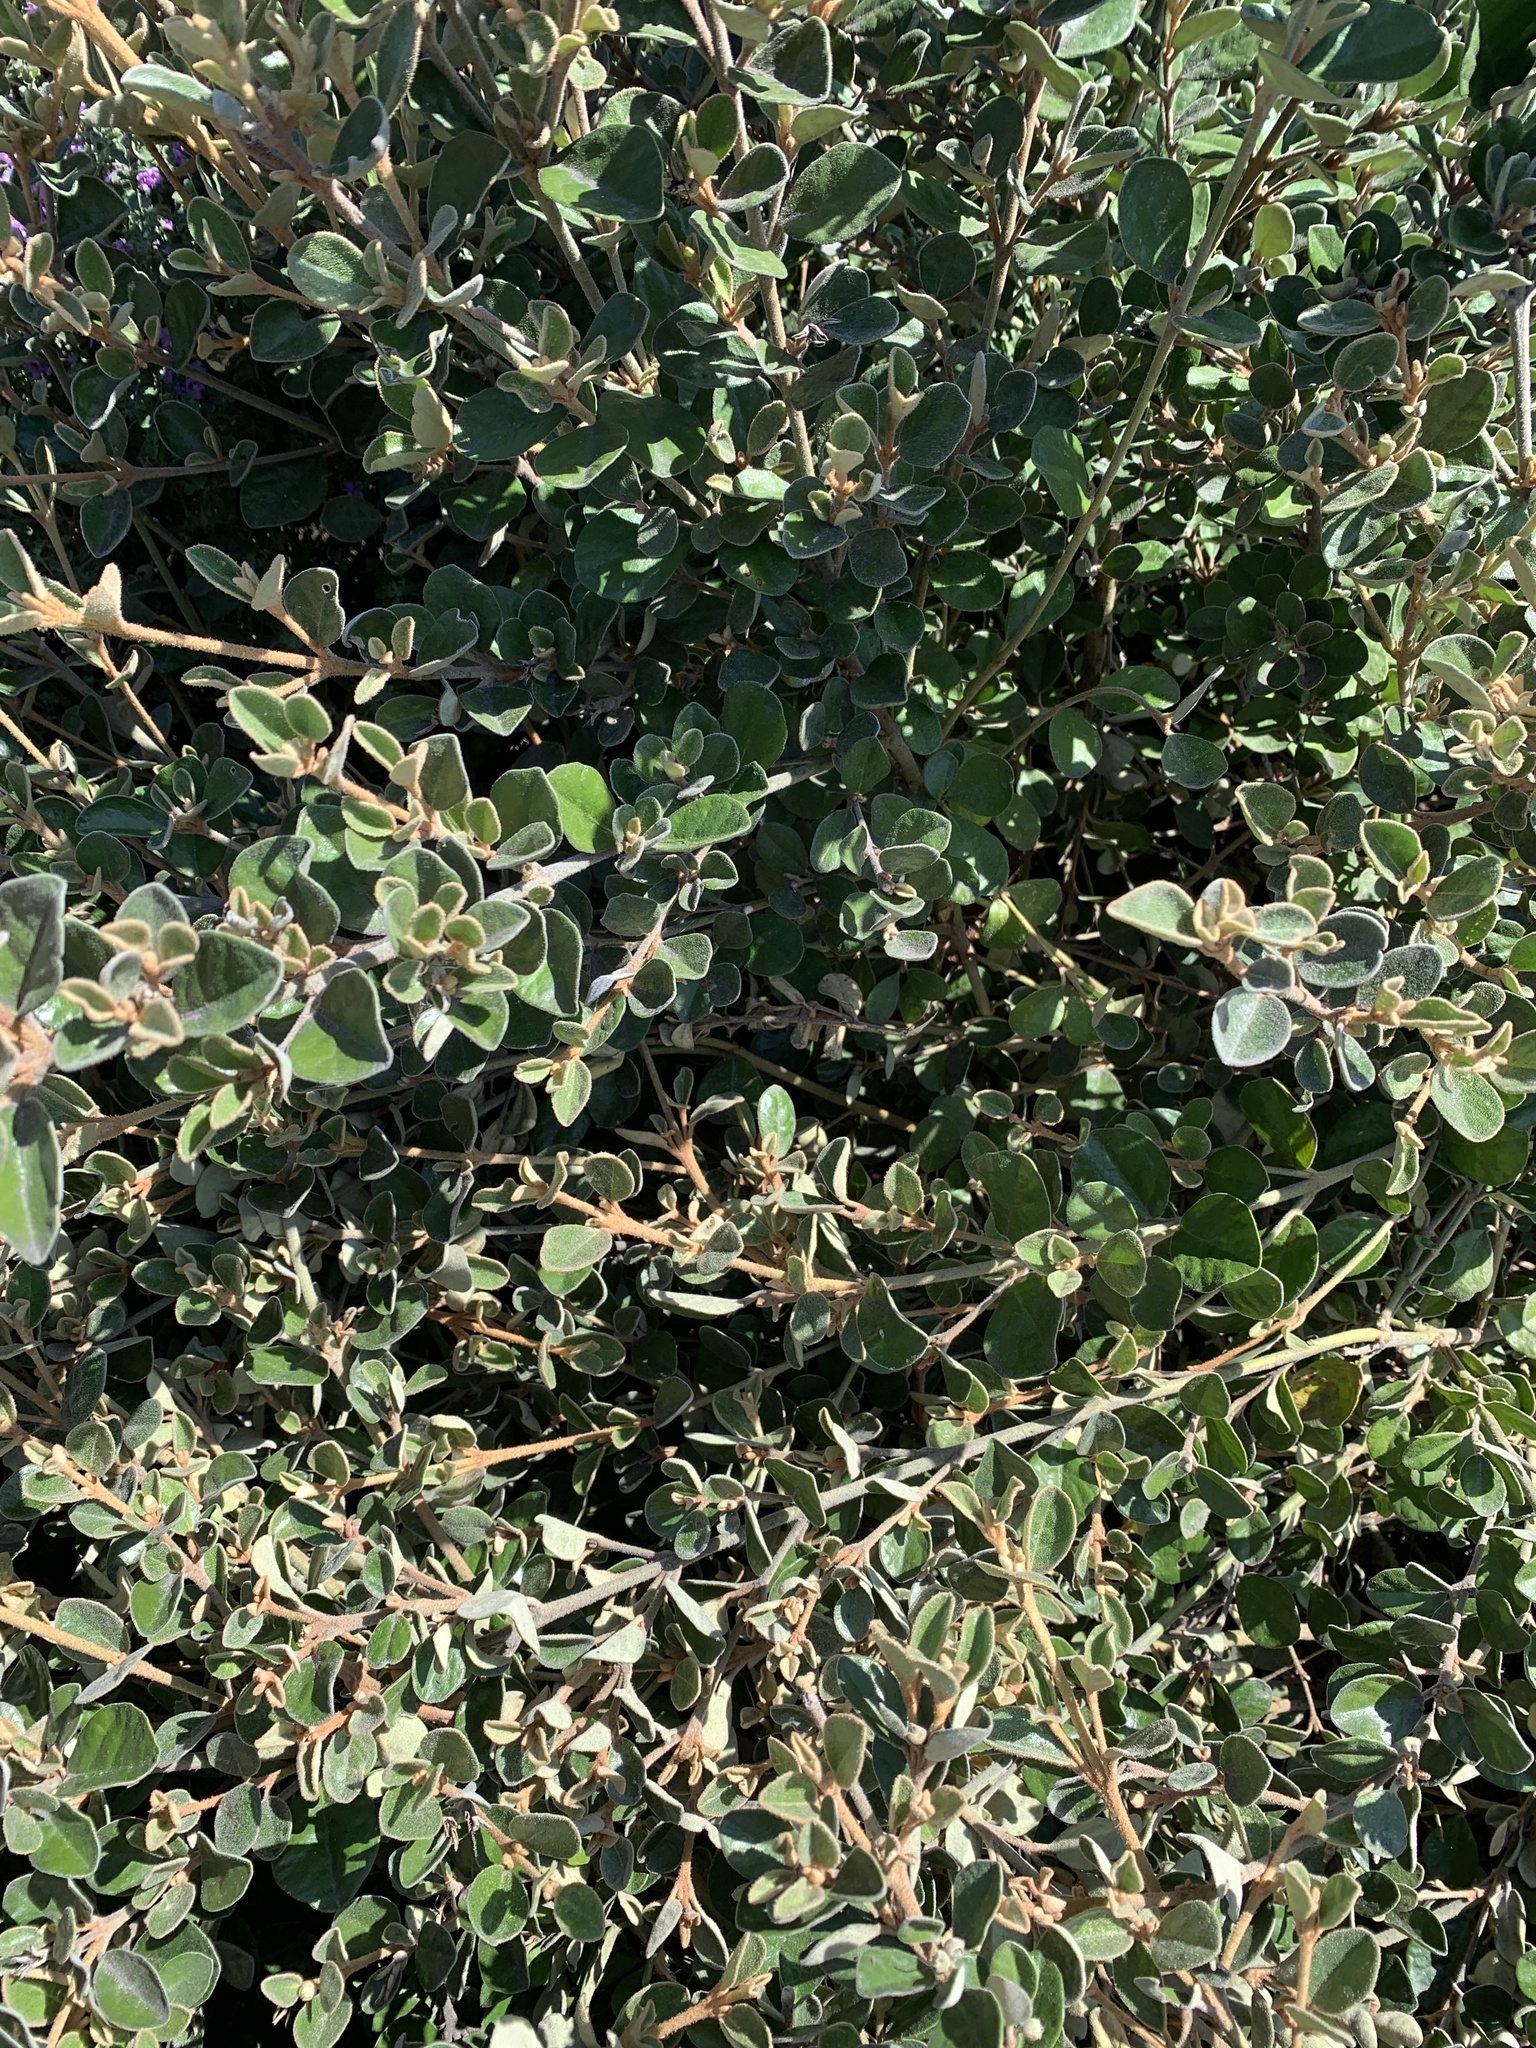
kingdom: Plantae
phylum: Tracheophyta
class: Magnoliopsida
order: Sapindales
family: Rutaceae
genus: Correa
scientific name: Correa alba
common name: White correa
